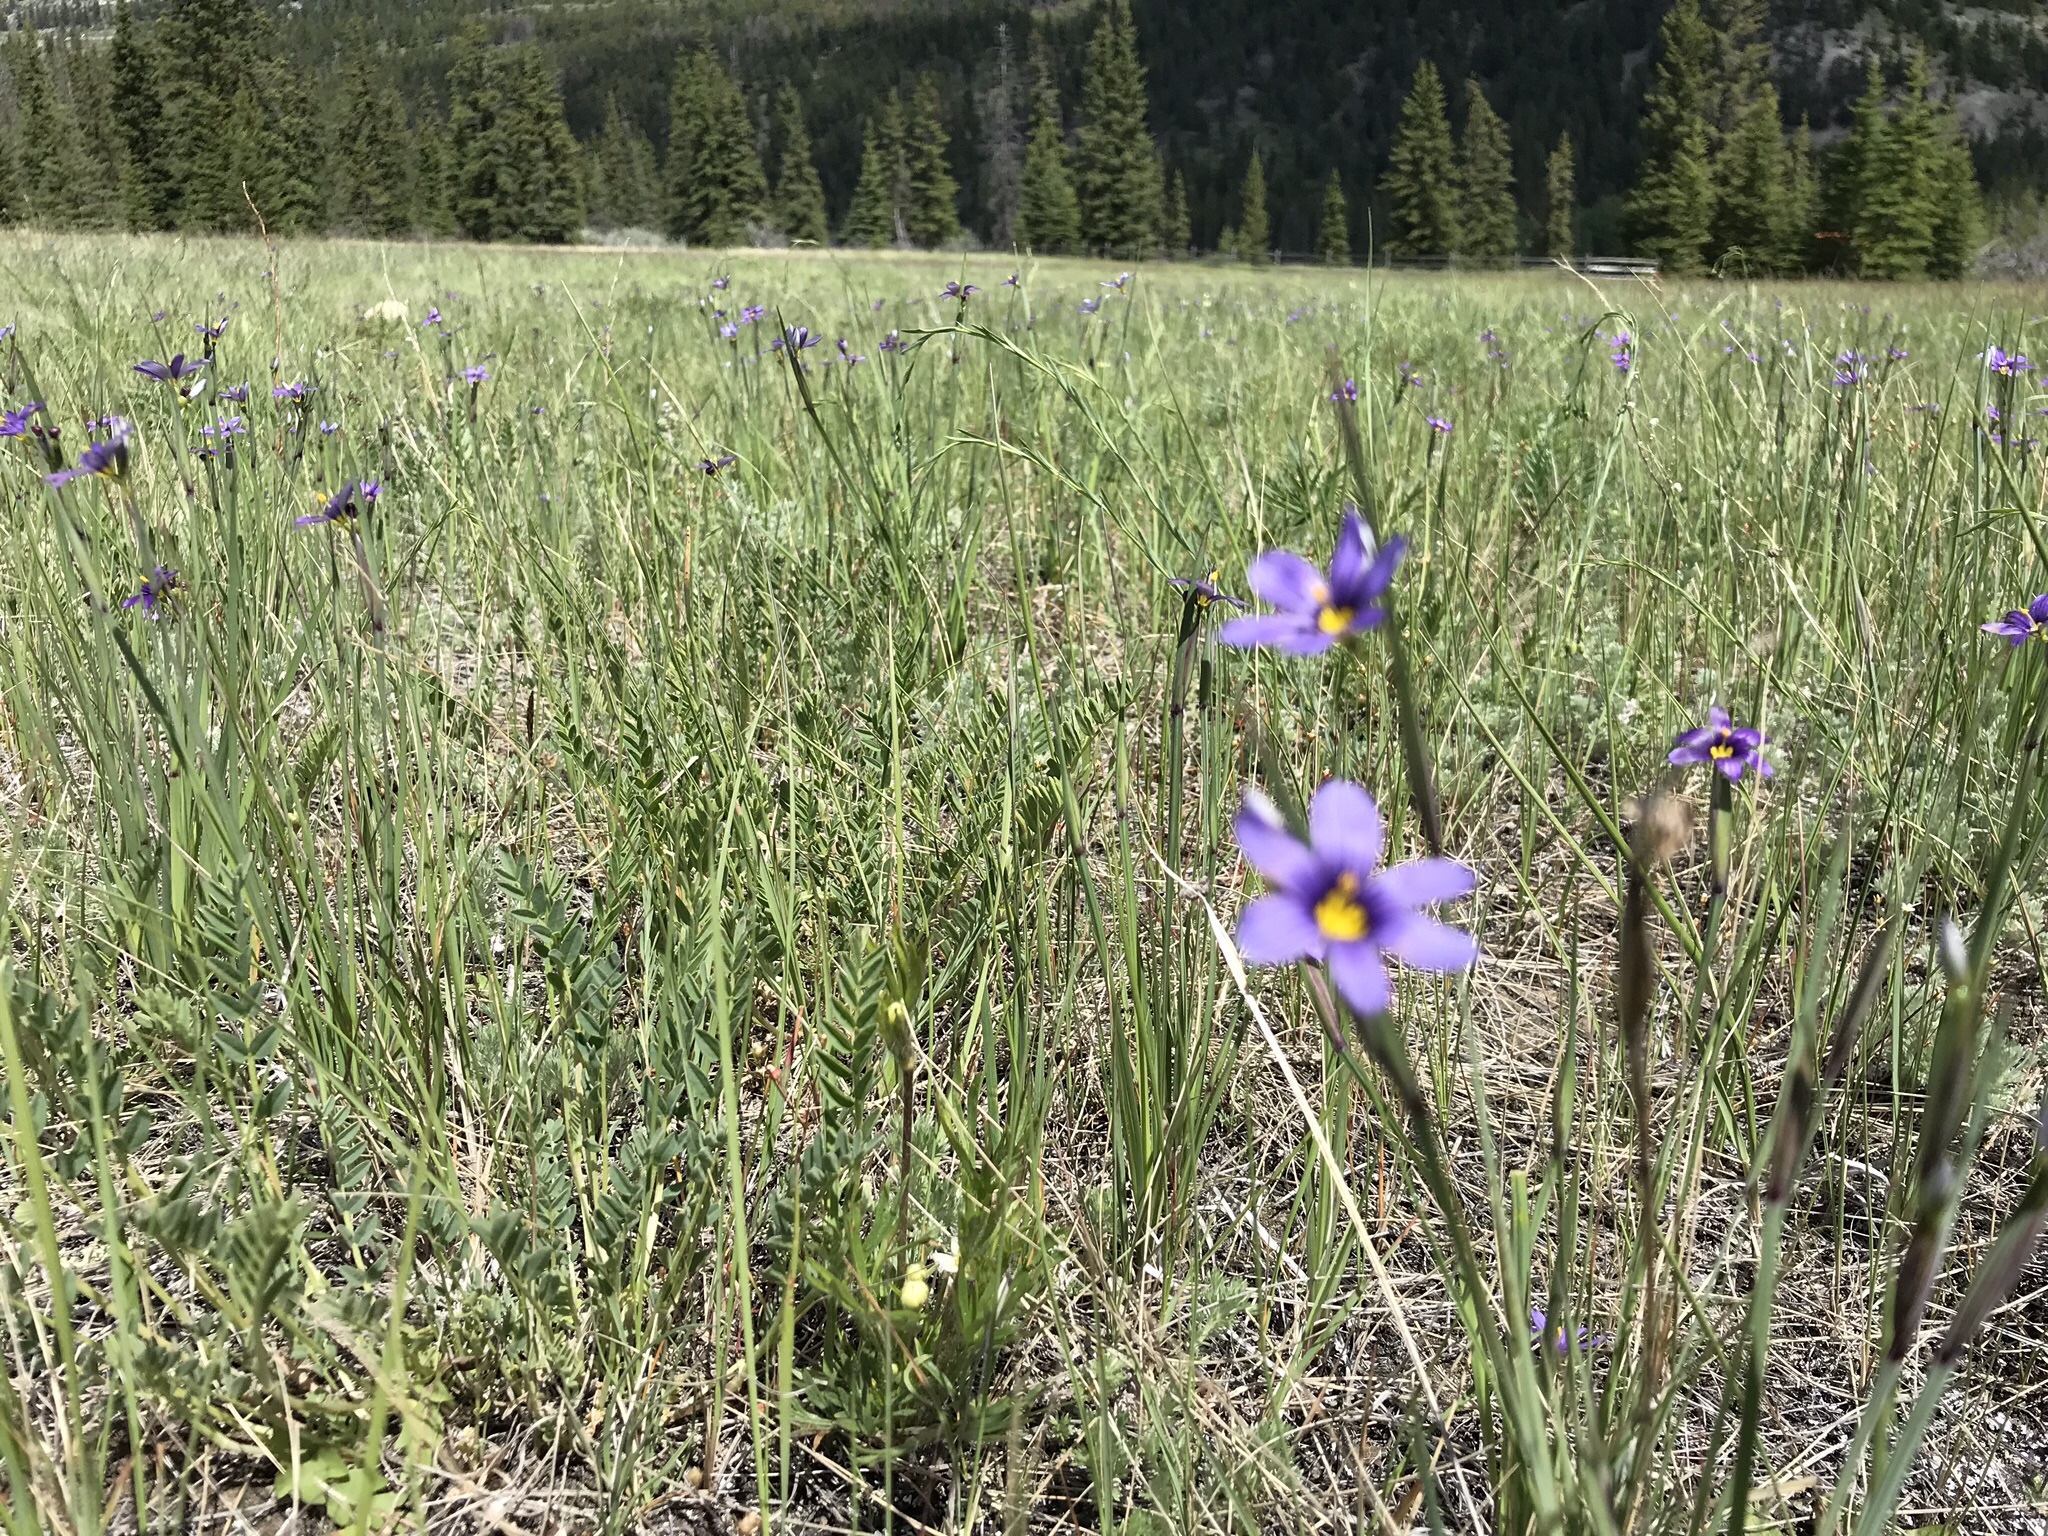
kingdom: Plantae
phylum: Tracheophyta
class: Liliopsida
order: Asparagales
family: Iridaceae
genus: Sisyrinchium
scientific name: Sisyrinchium montanum
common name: American blue-eyed-grass
